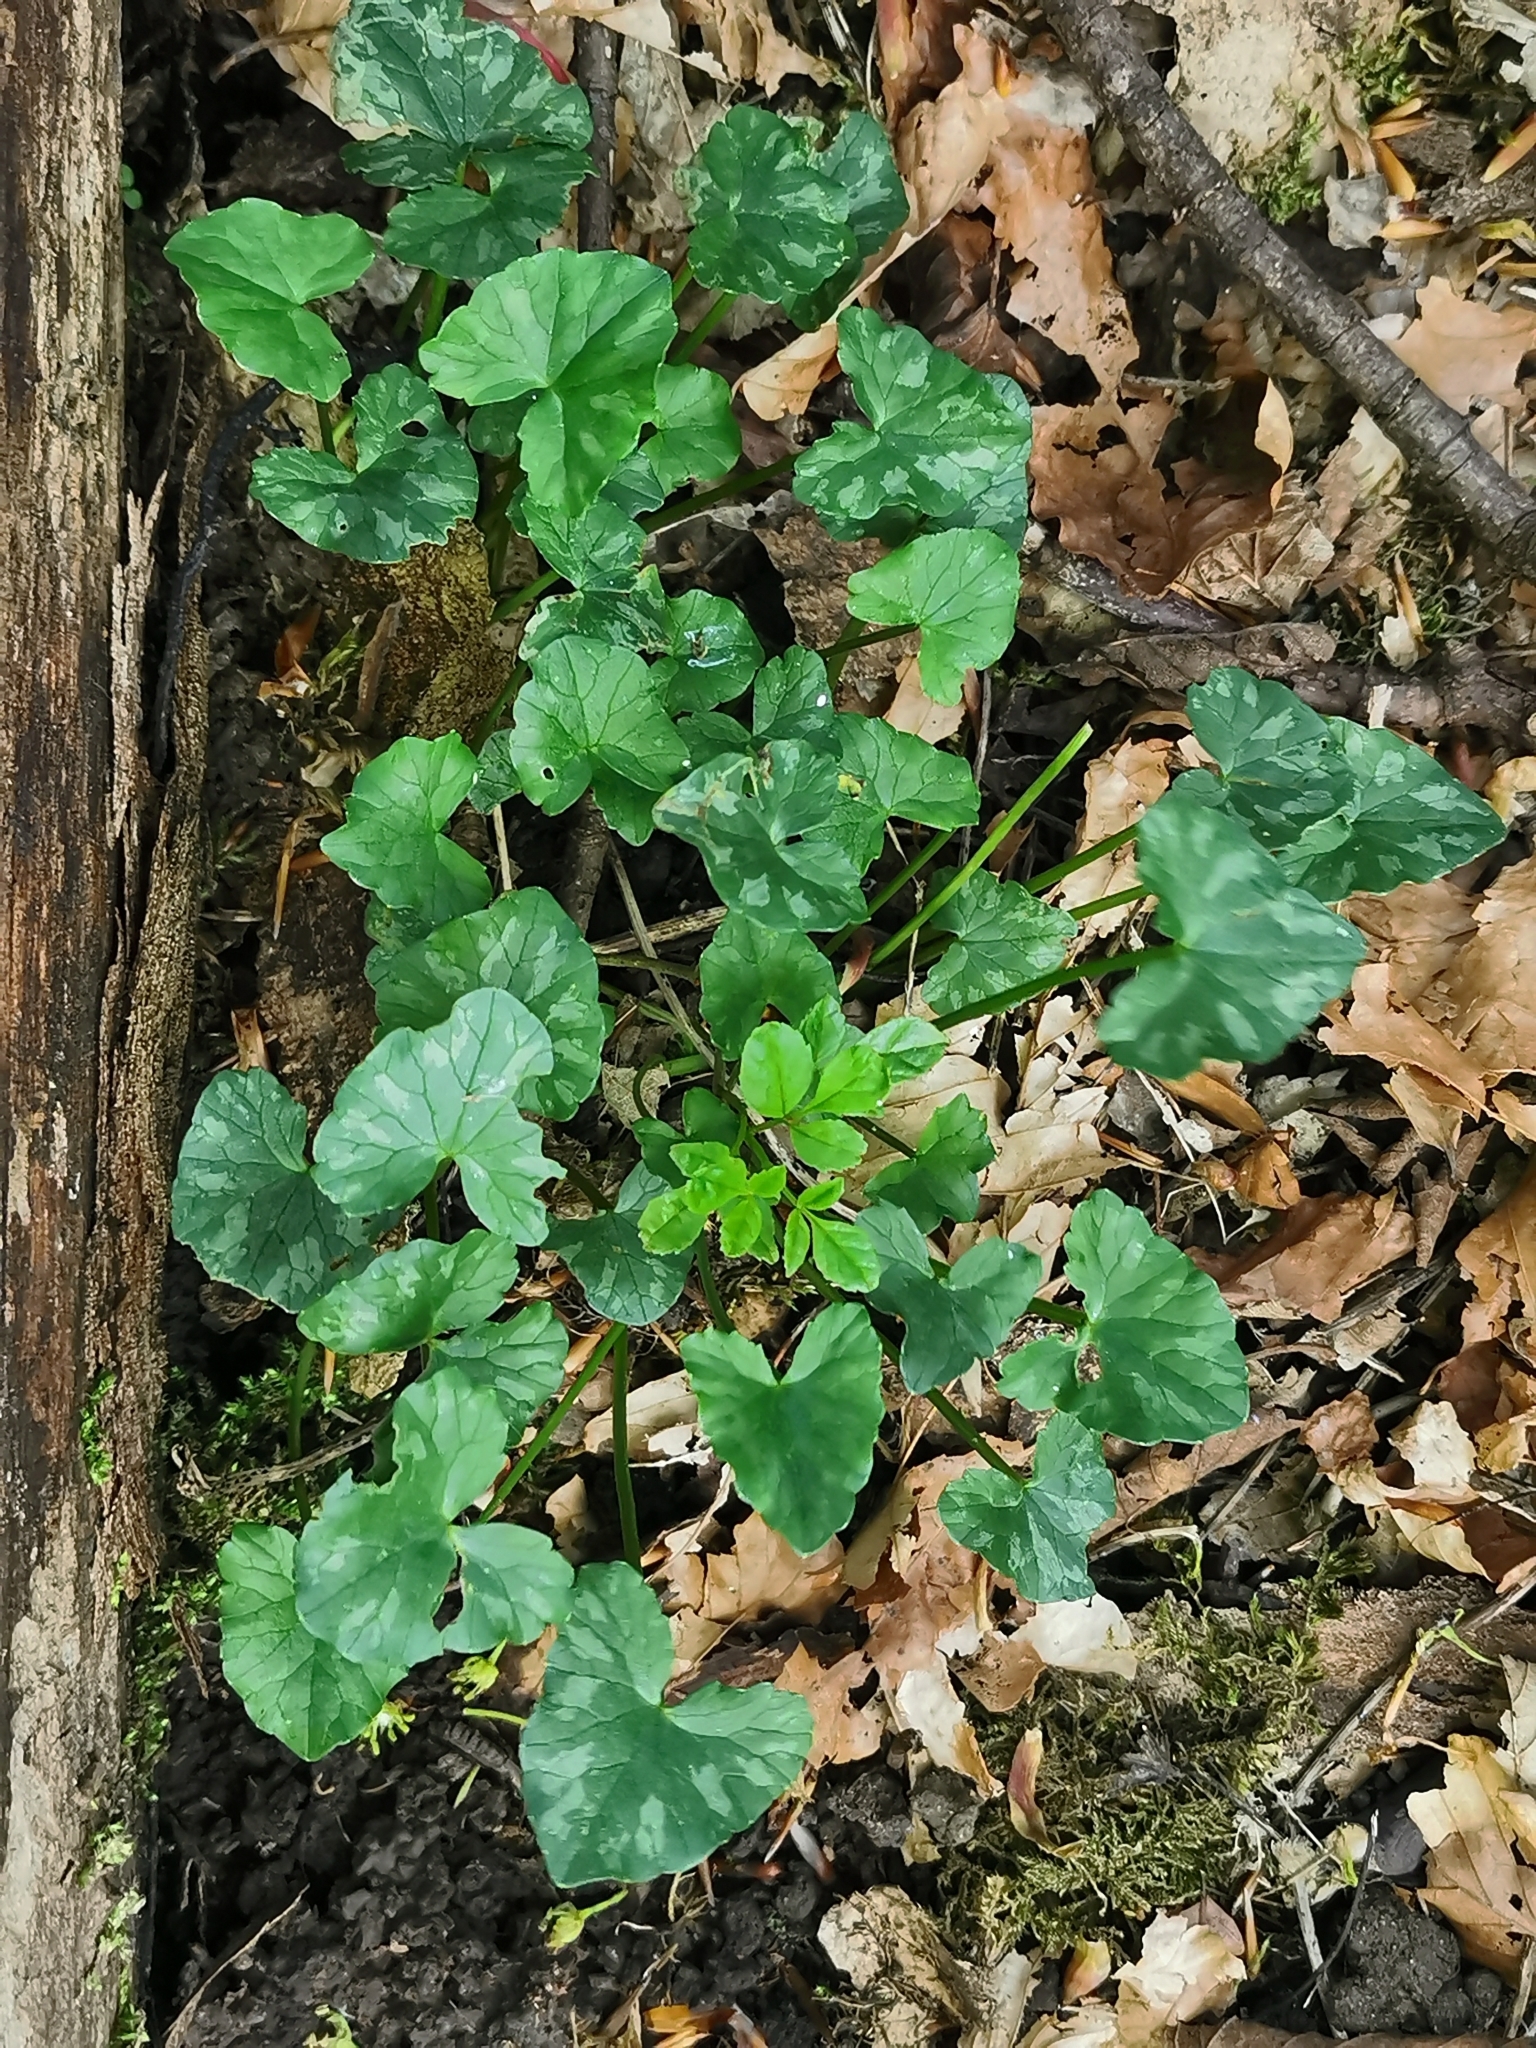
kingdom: Plantae
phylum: Tracheophyta
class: Magnoliopsida
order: Ranunculales
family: Ranunculaceae
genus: Ficaria
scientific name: Ficaria verna
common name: Lesser celandine
